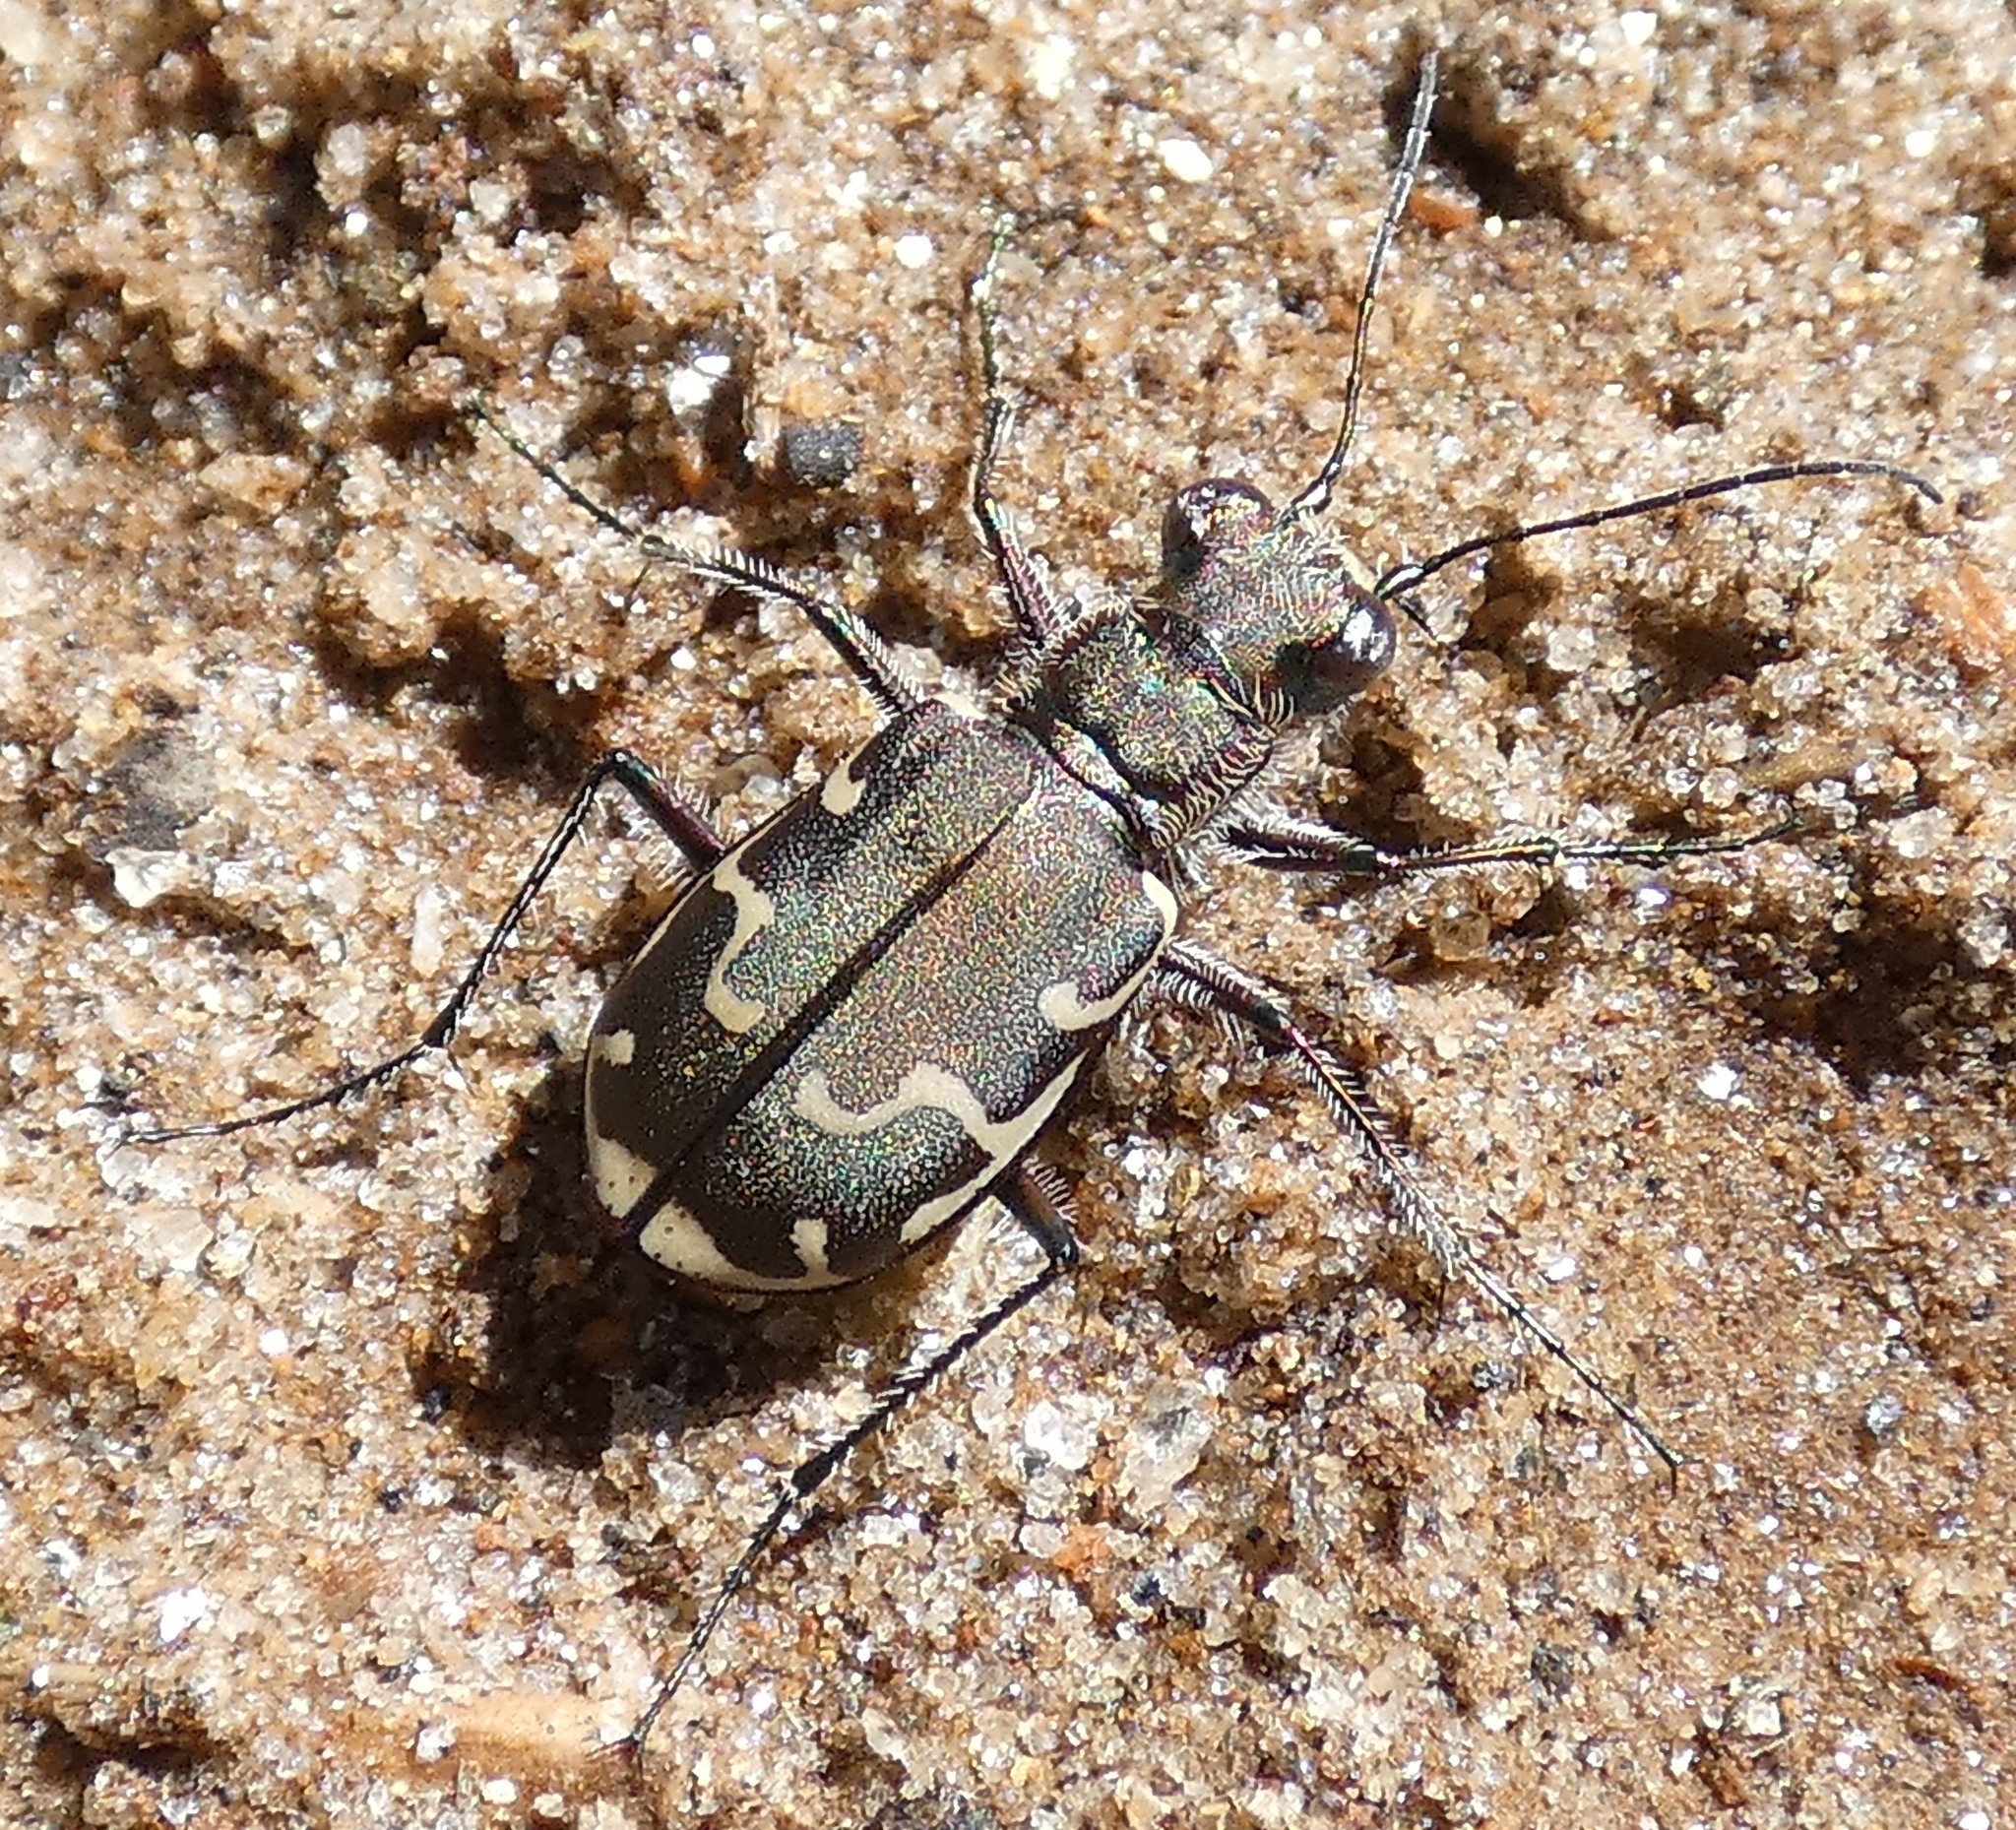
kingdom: Animalia
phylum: Arthropoda
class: Insecta
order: Coleoptera
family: Carabidae
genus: Cicindela
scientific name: Cicindela repanda
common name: Bronzed tiger beetle
